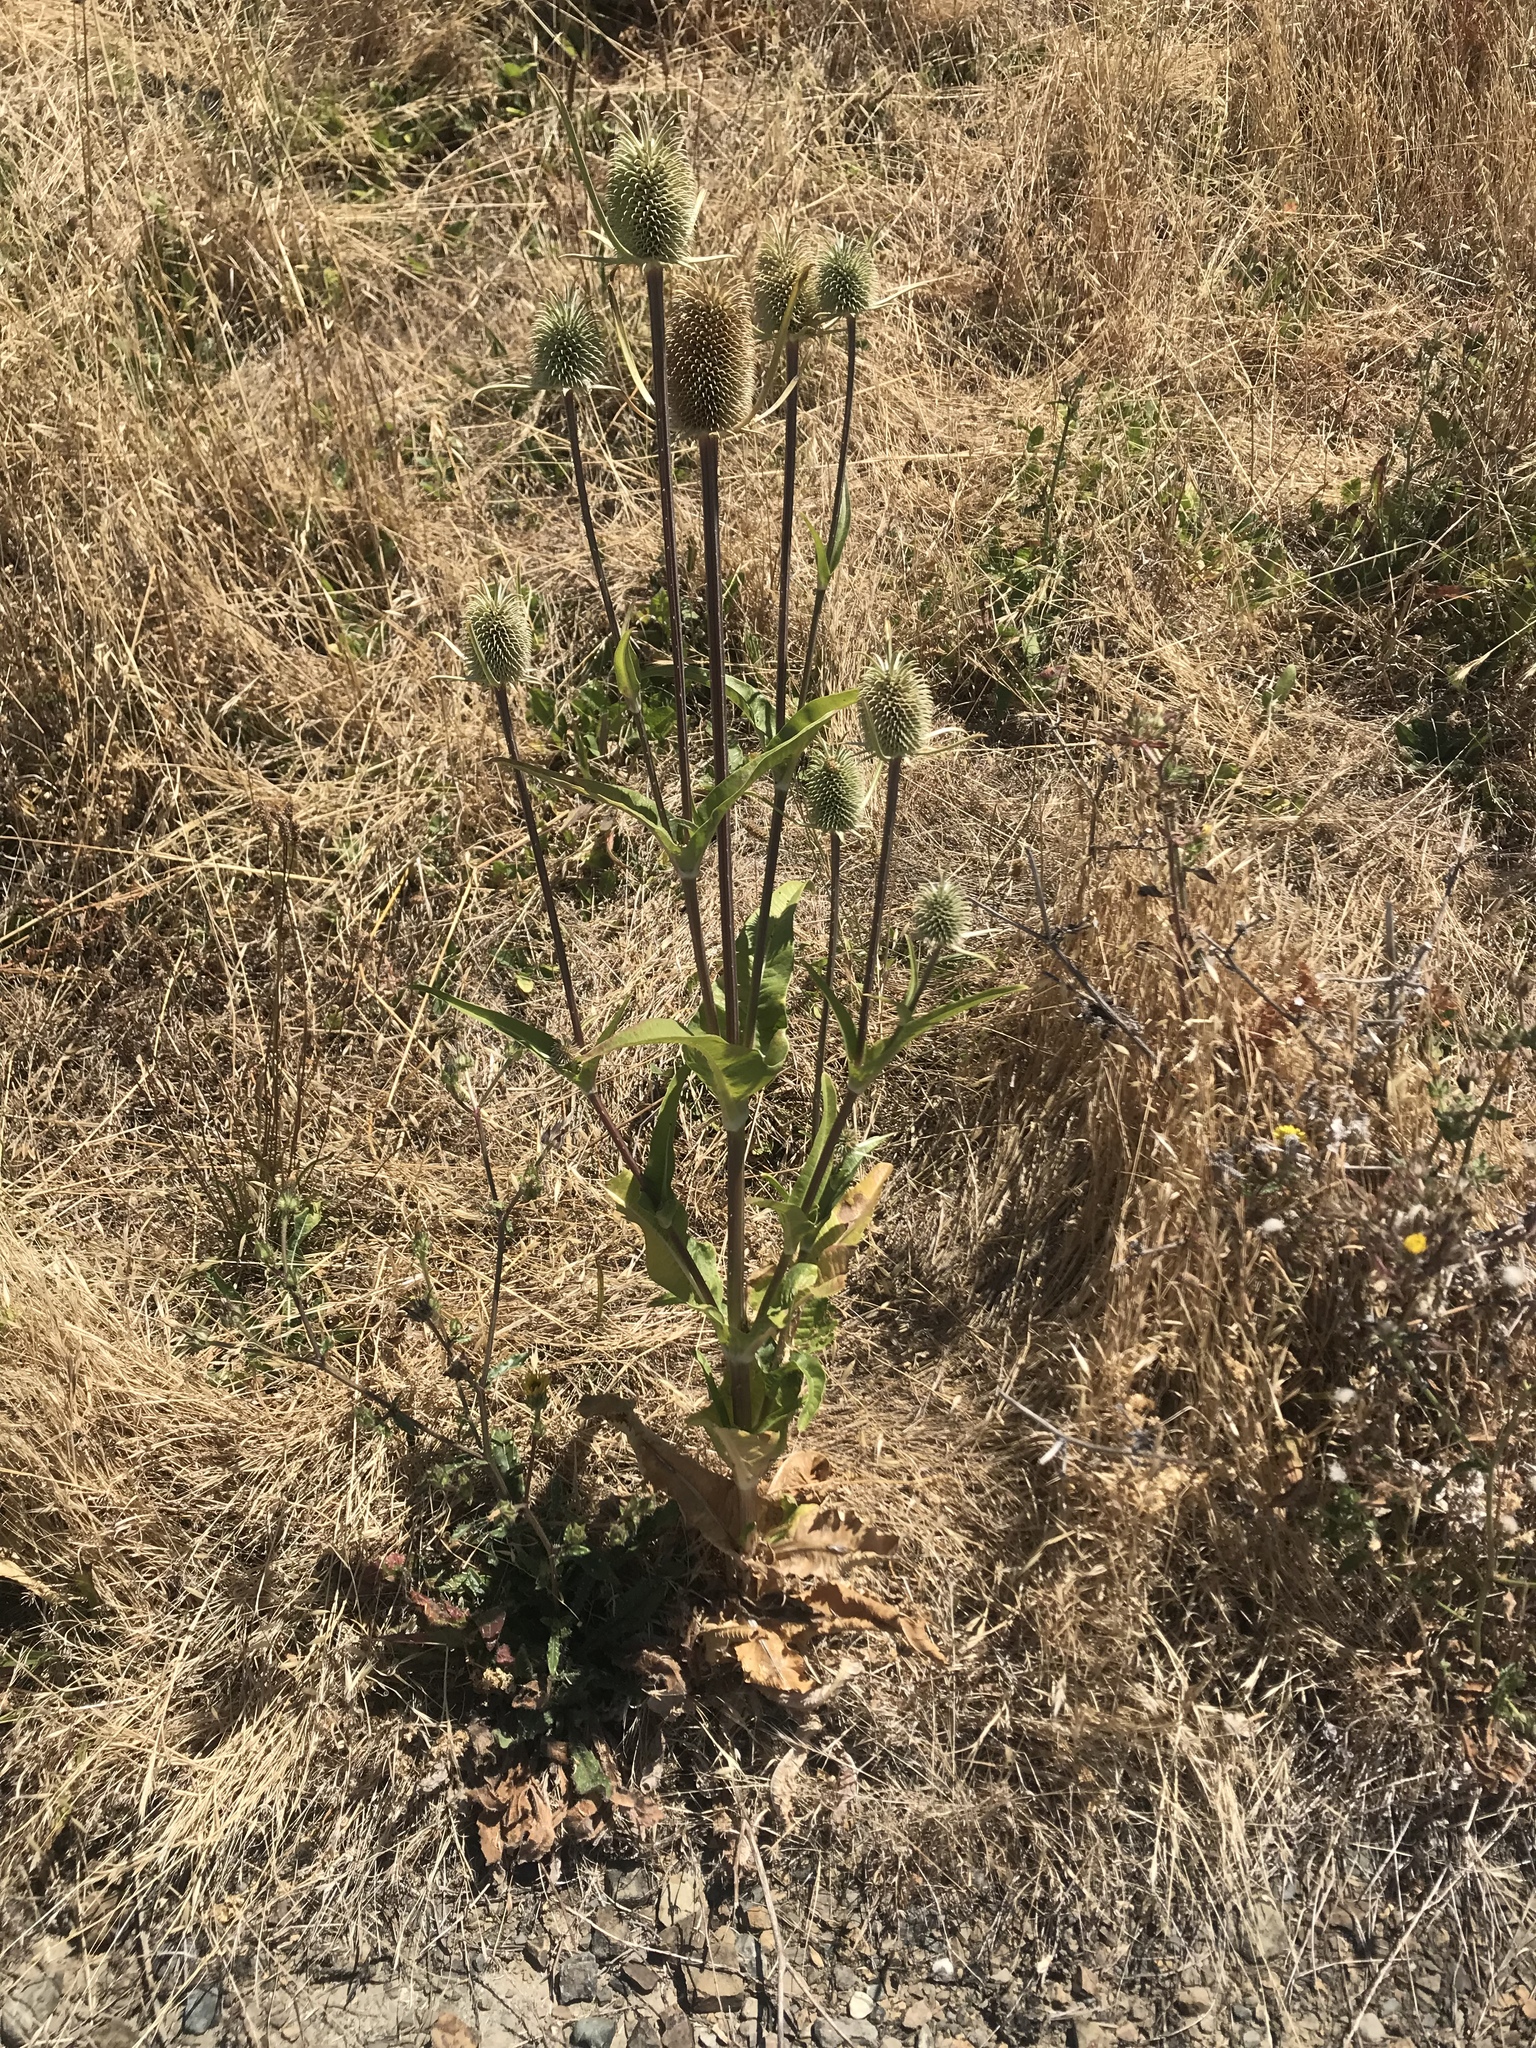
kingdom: Plantae
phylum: Tracheophyta
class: Magnoliopsida
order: Dipsacales
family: Caprifoliaceae
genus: Dipsacus
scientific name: Dipsacus sativus
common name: Fuller's teasel
